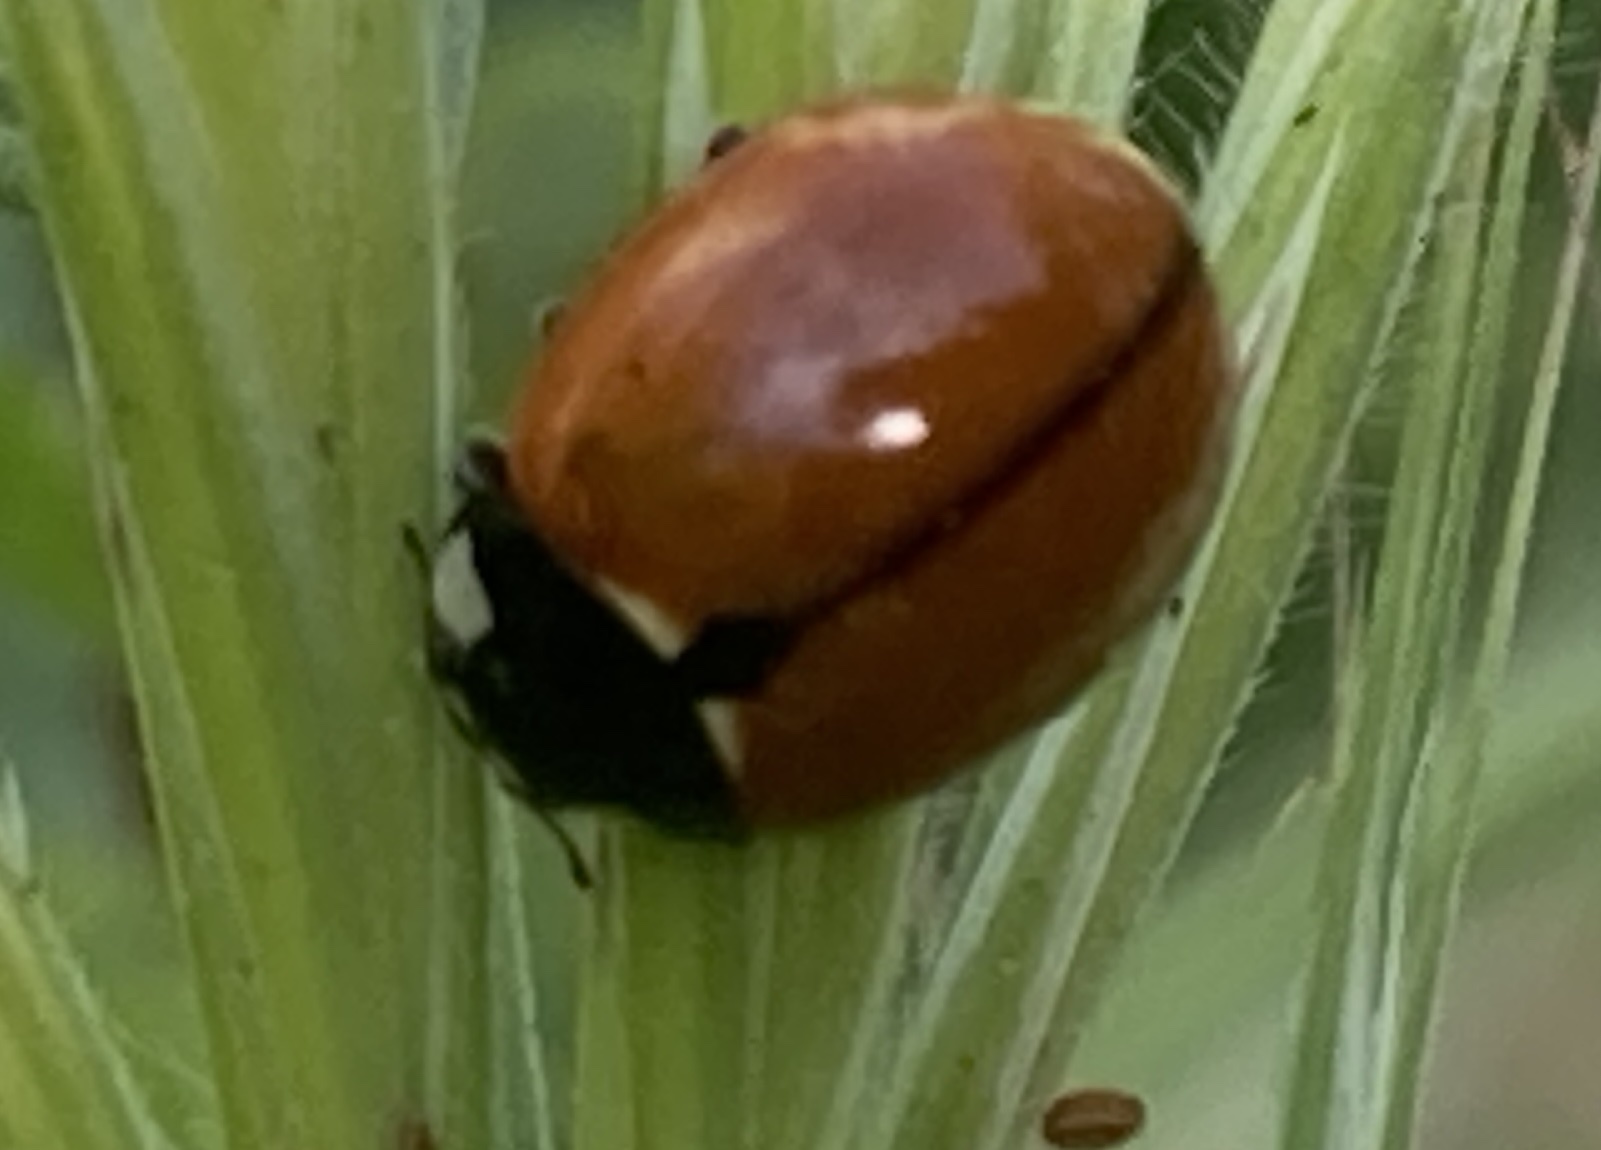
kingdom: Animalia
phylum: Arthropoda
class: Insecta
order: Coleoptera
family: Coccinellidae
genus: Coccinella
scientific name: Coccinella californica
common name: Lady beetle
